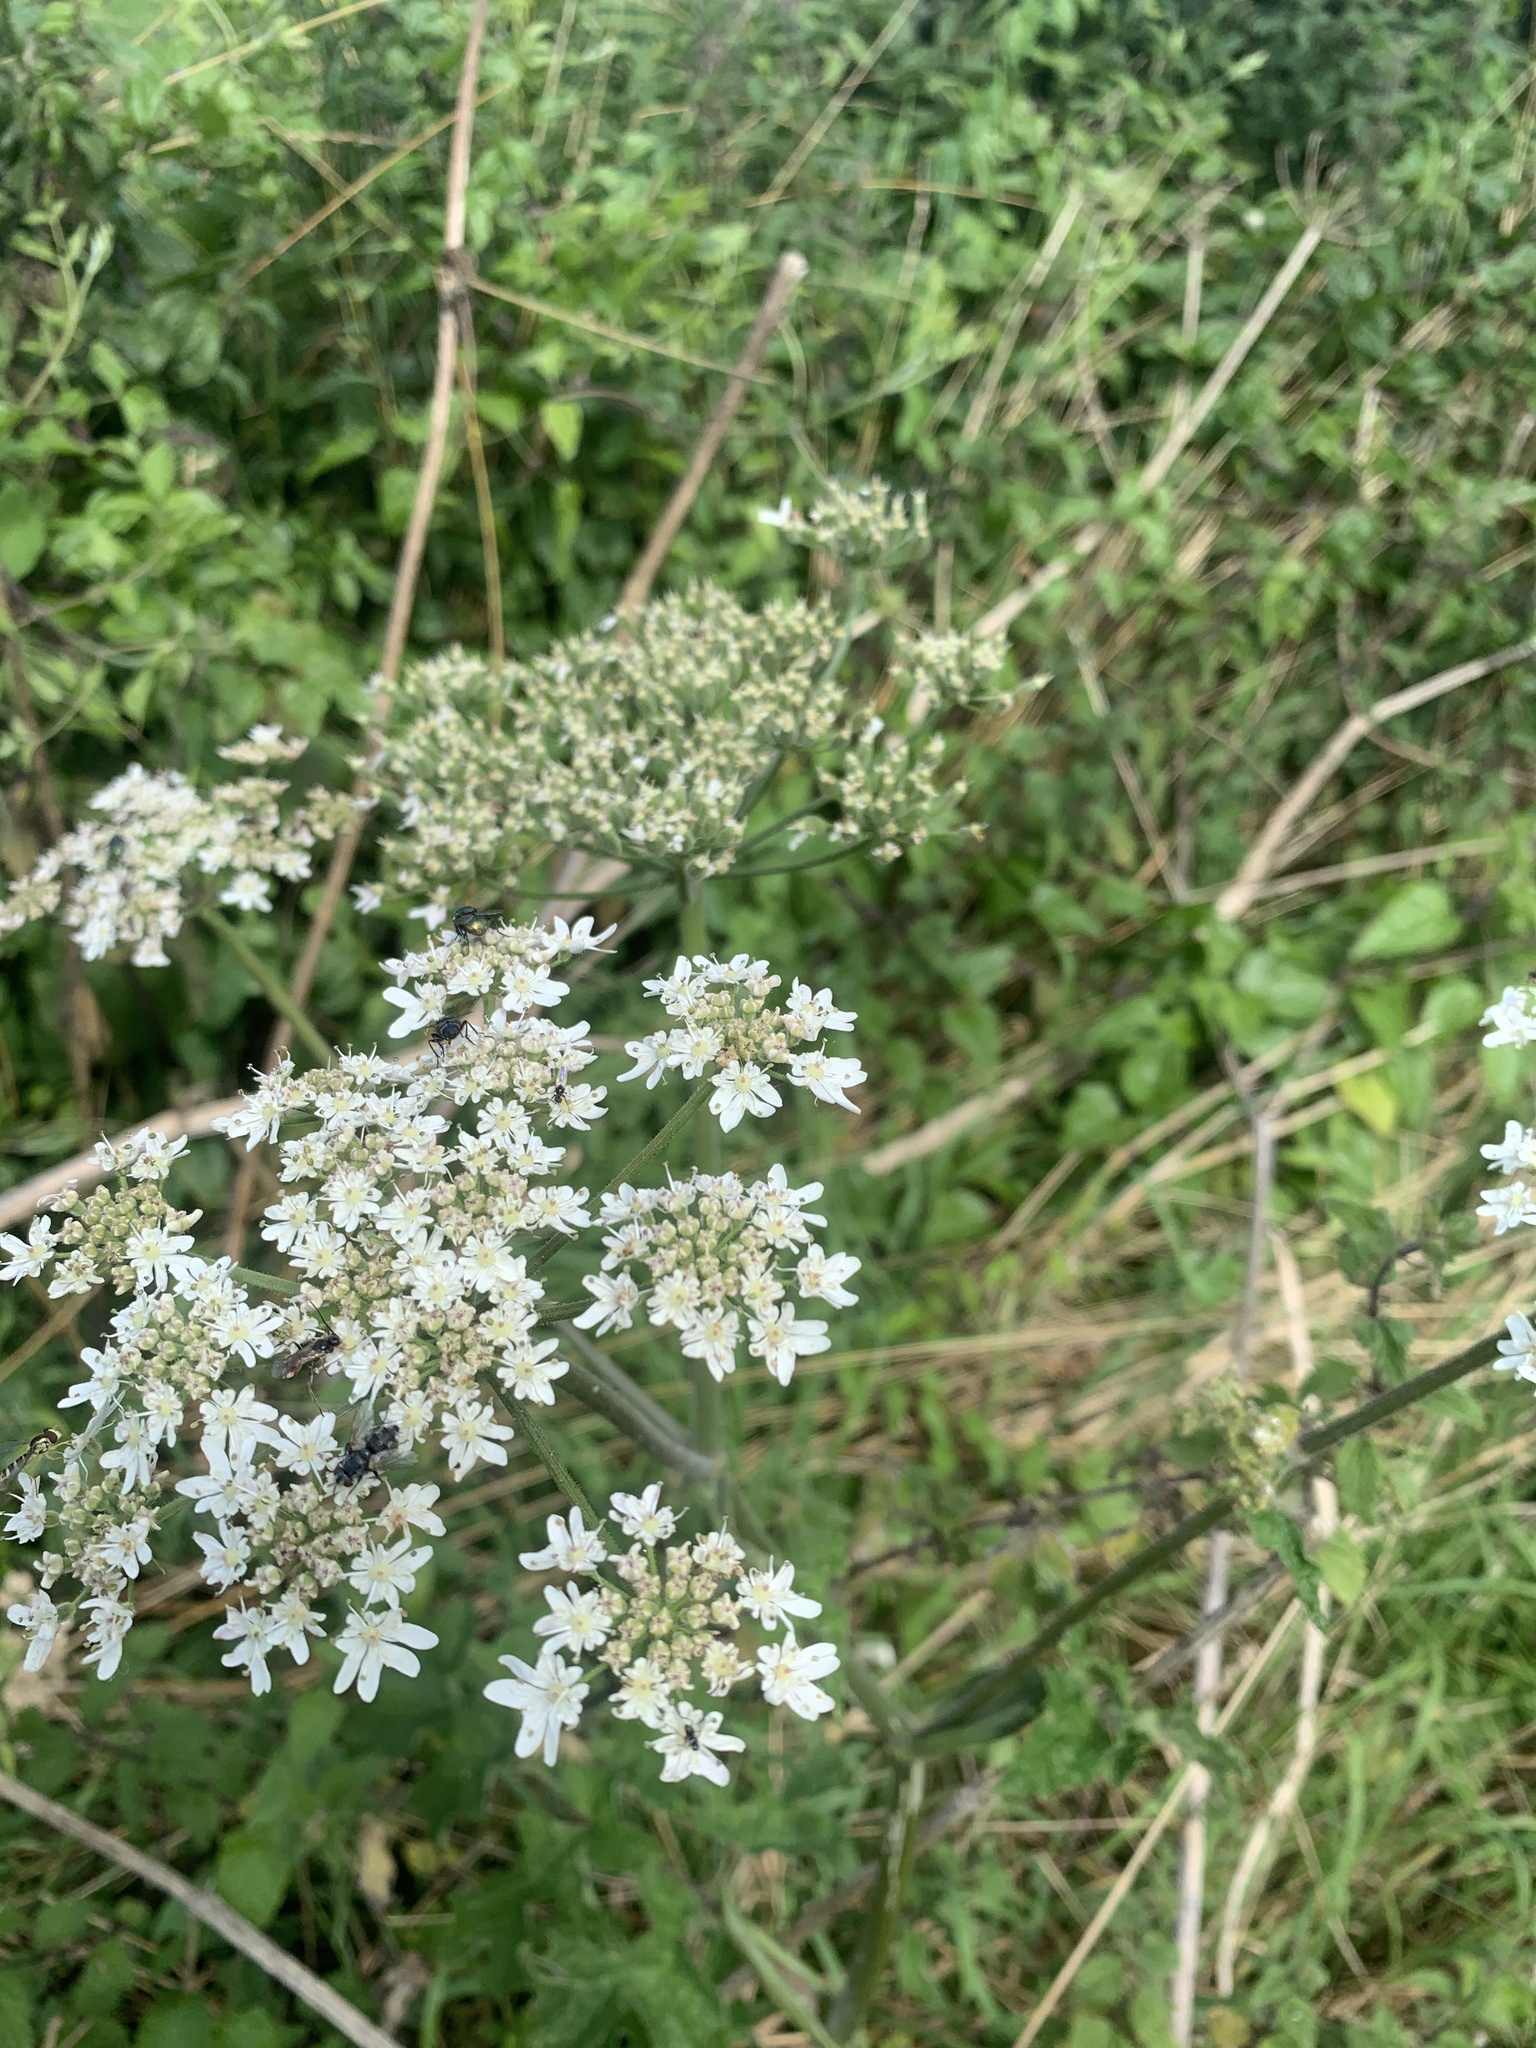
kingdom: Plantae
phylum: Tracheophyta
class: Magnoliopsida
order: Apiales
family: Apiaceae
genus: Heracleum
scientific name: Heracleum sphondylium
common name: Hogweed
